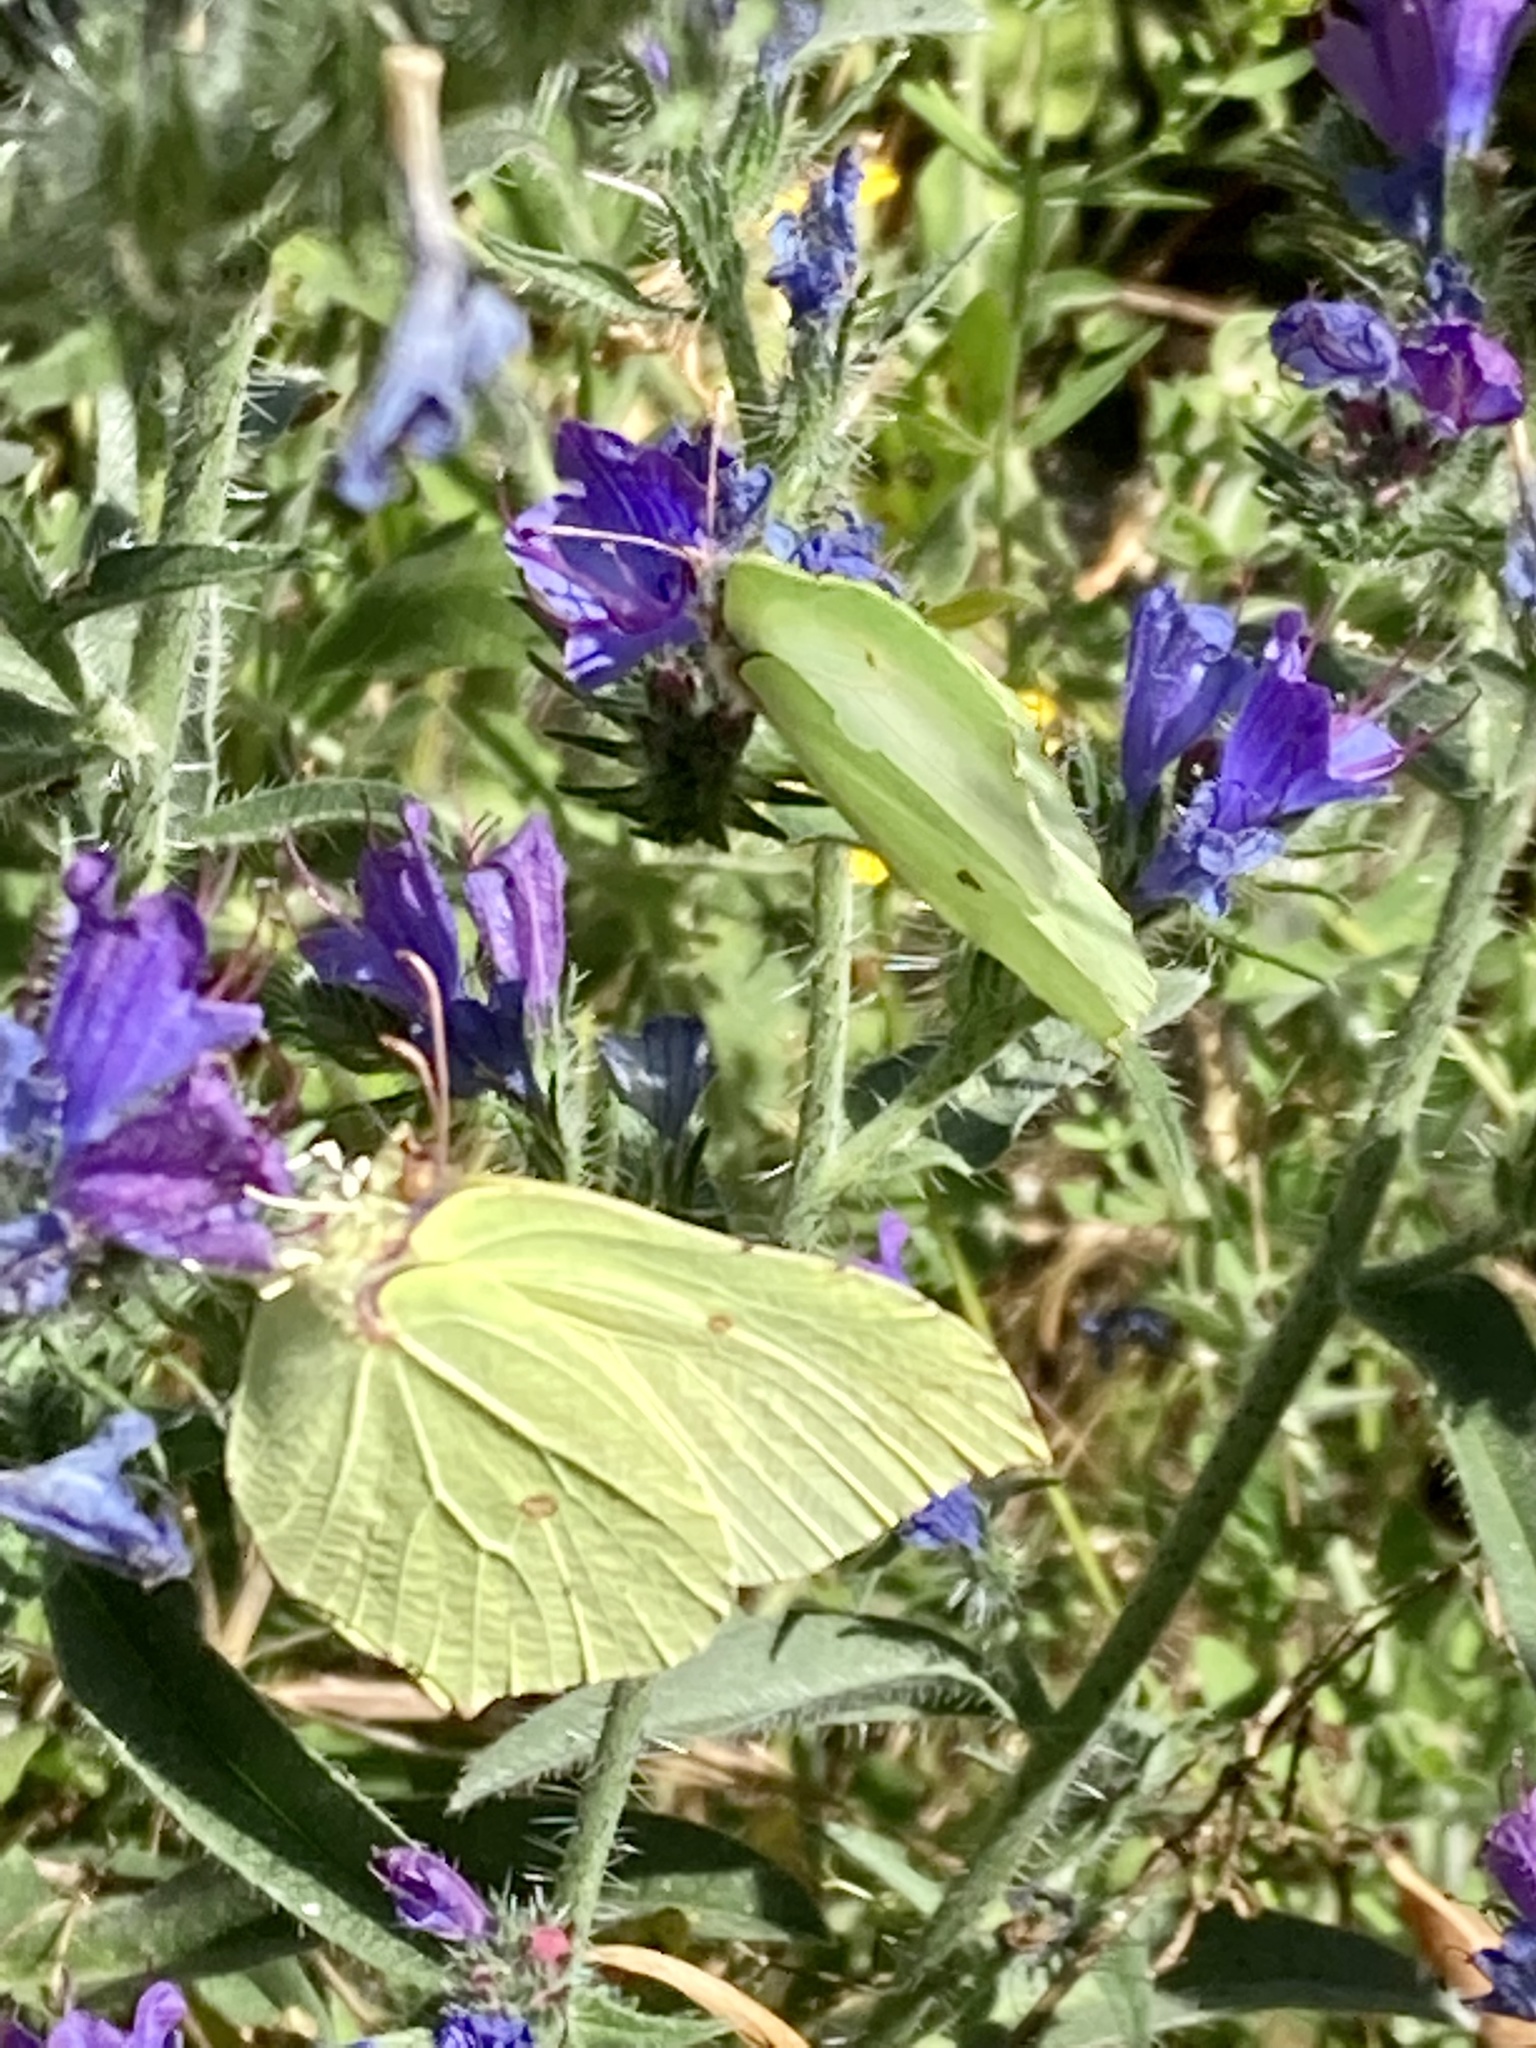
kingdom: Animalia
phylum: Arthropoda
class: Insecta
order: Lepidoptera
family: Pieridae
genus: Gonepteryx
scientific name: Gonepteryx rhamni
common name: Brimstone
